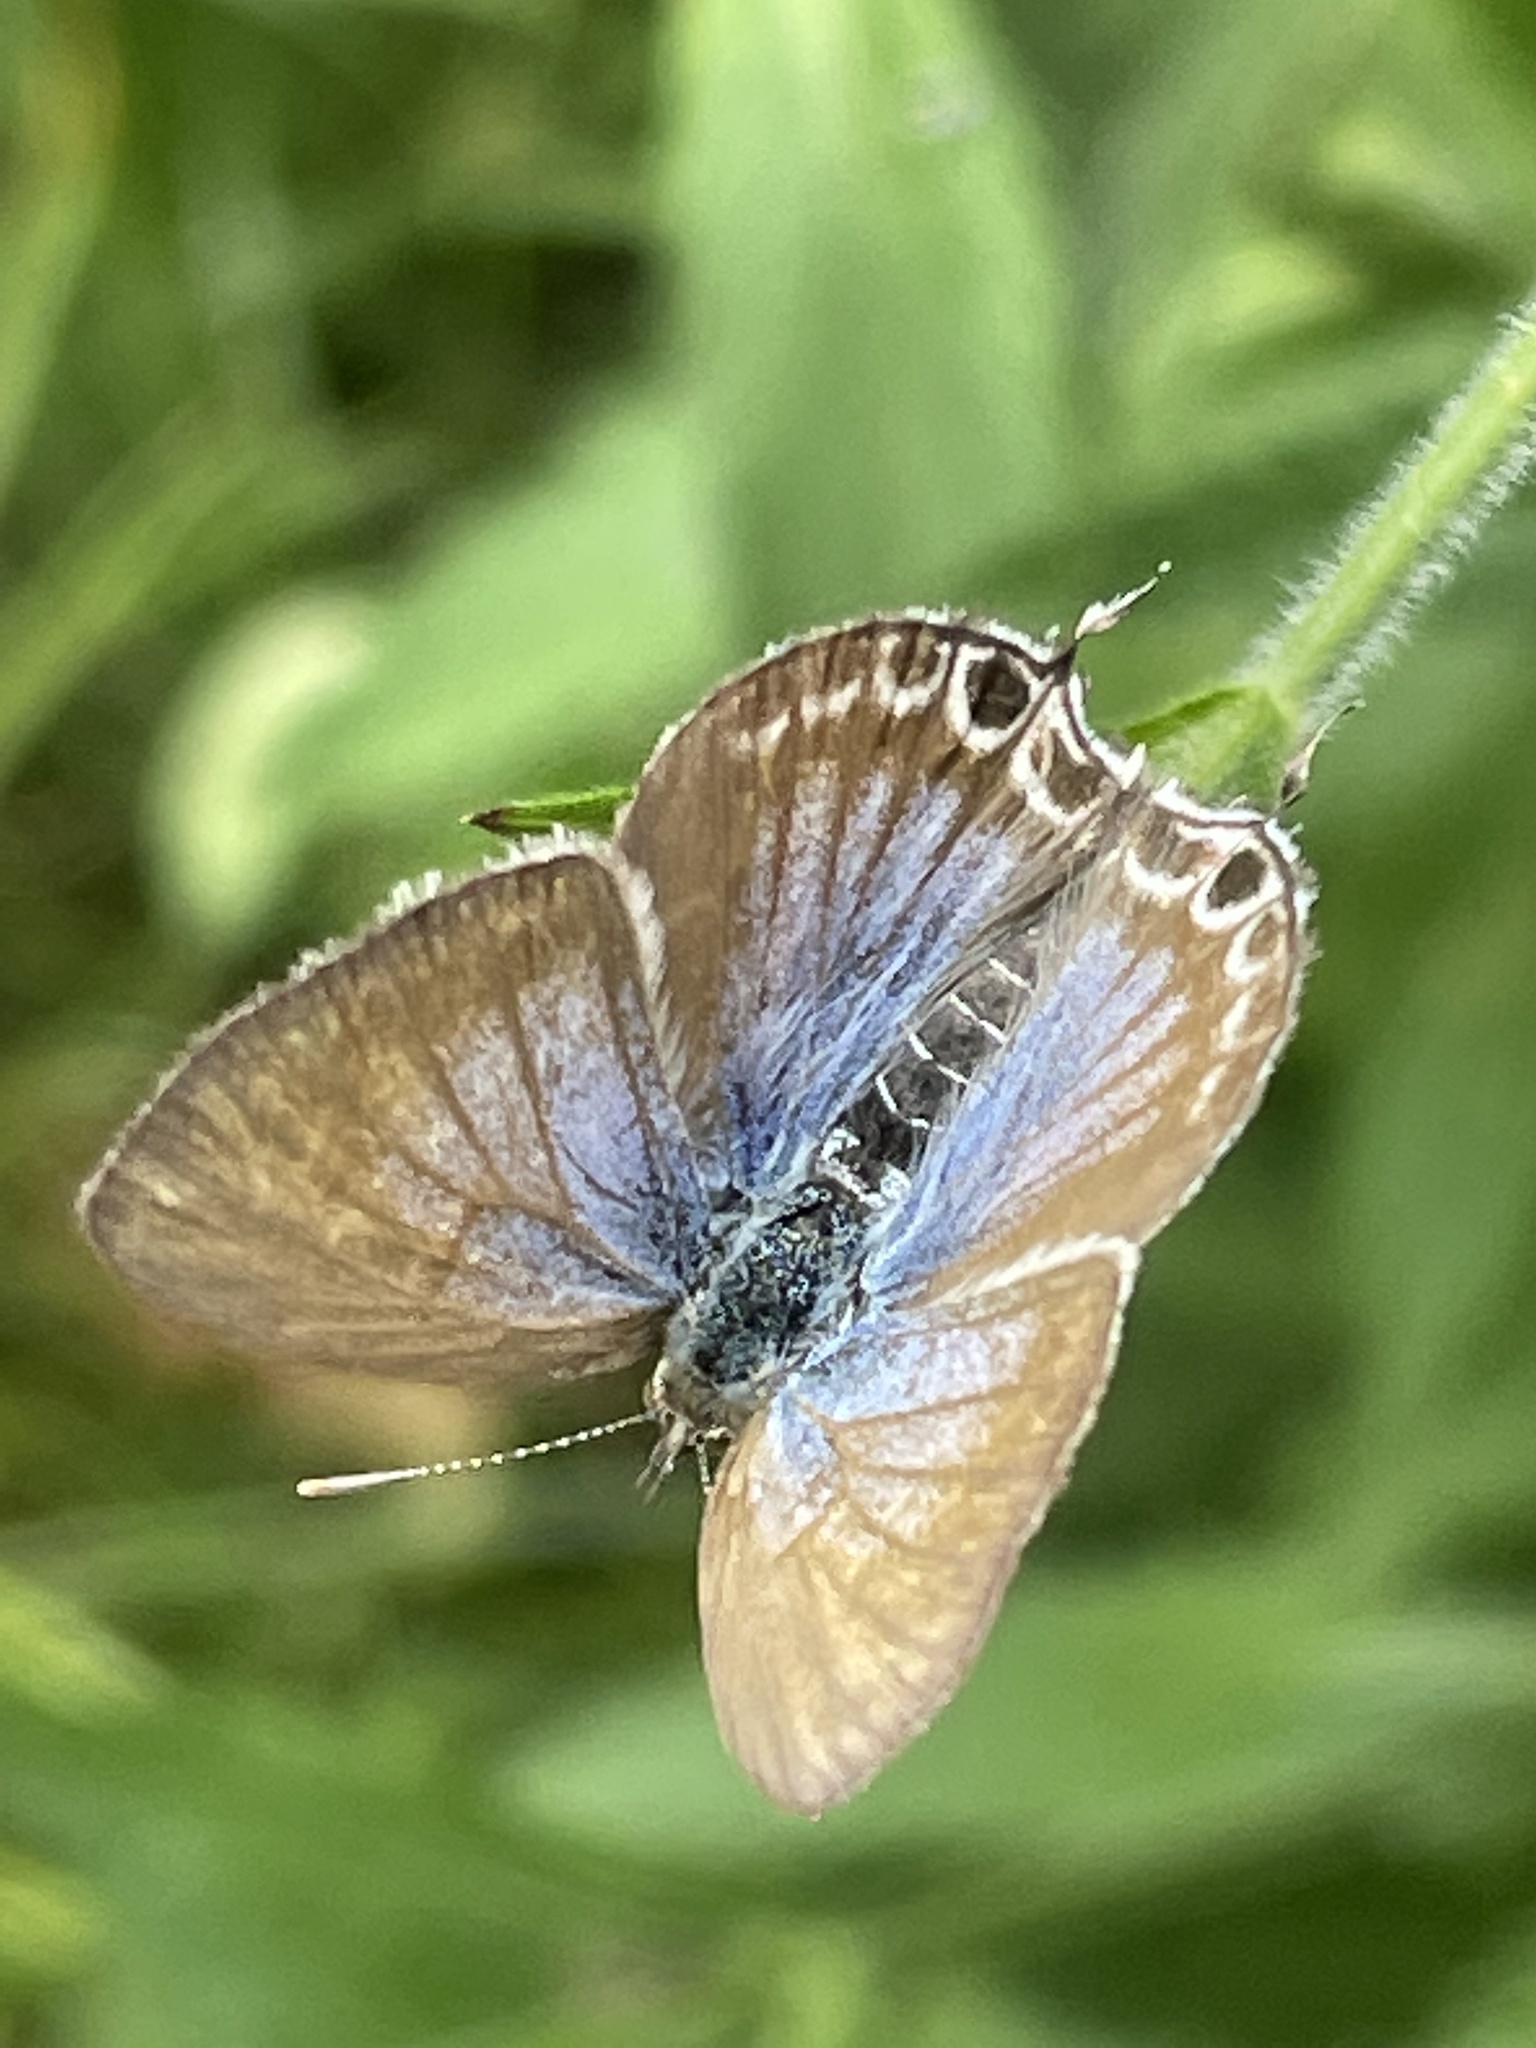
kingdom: Animalia
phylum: Arthropoda
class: Insecta
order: Lepidoptera
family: Lycaenidae
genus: Theclinesthes
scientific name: Theclinesthes onycha
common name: Cycad blue
